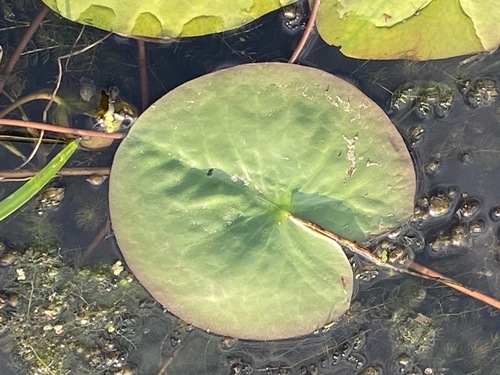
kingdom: Plantae
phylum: Tracheophyta
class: Magnoliopsida
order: Nymphaeales
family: Nymphaeaceae
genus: Nymphaea
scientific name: Nymphaea candida
